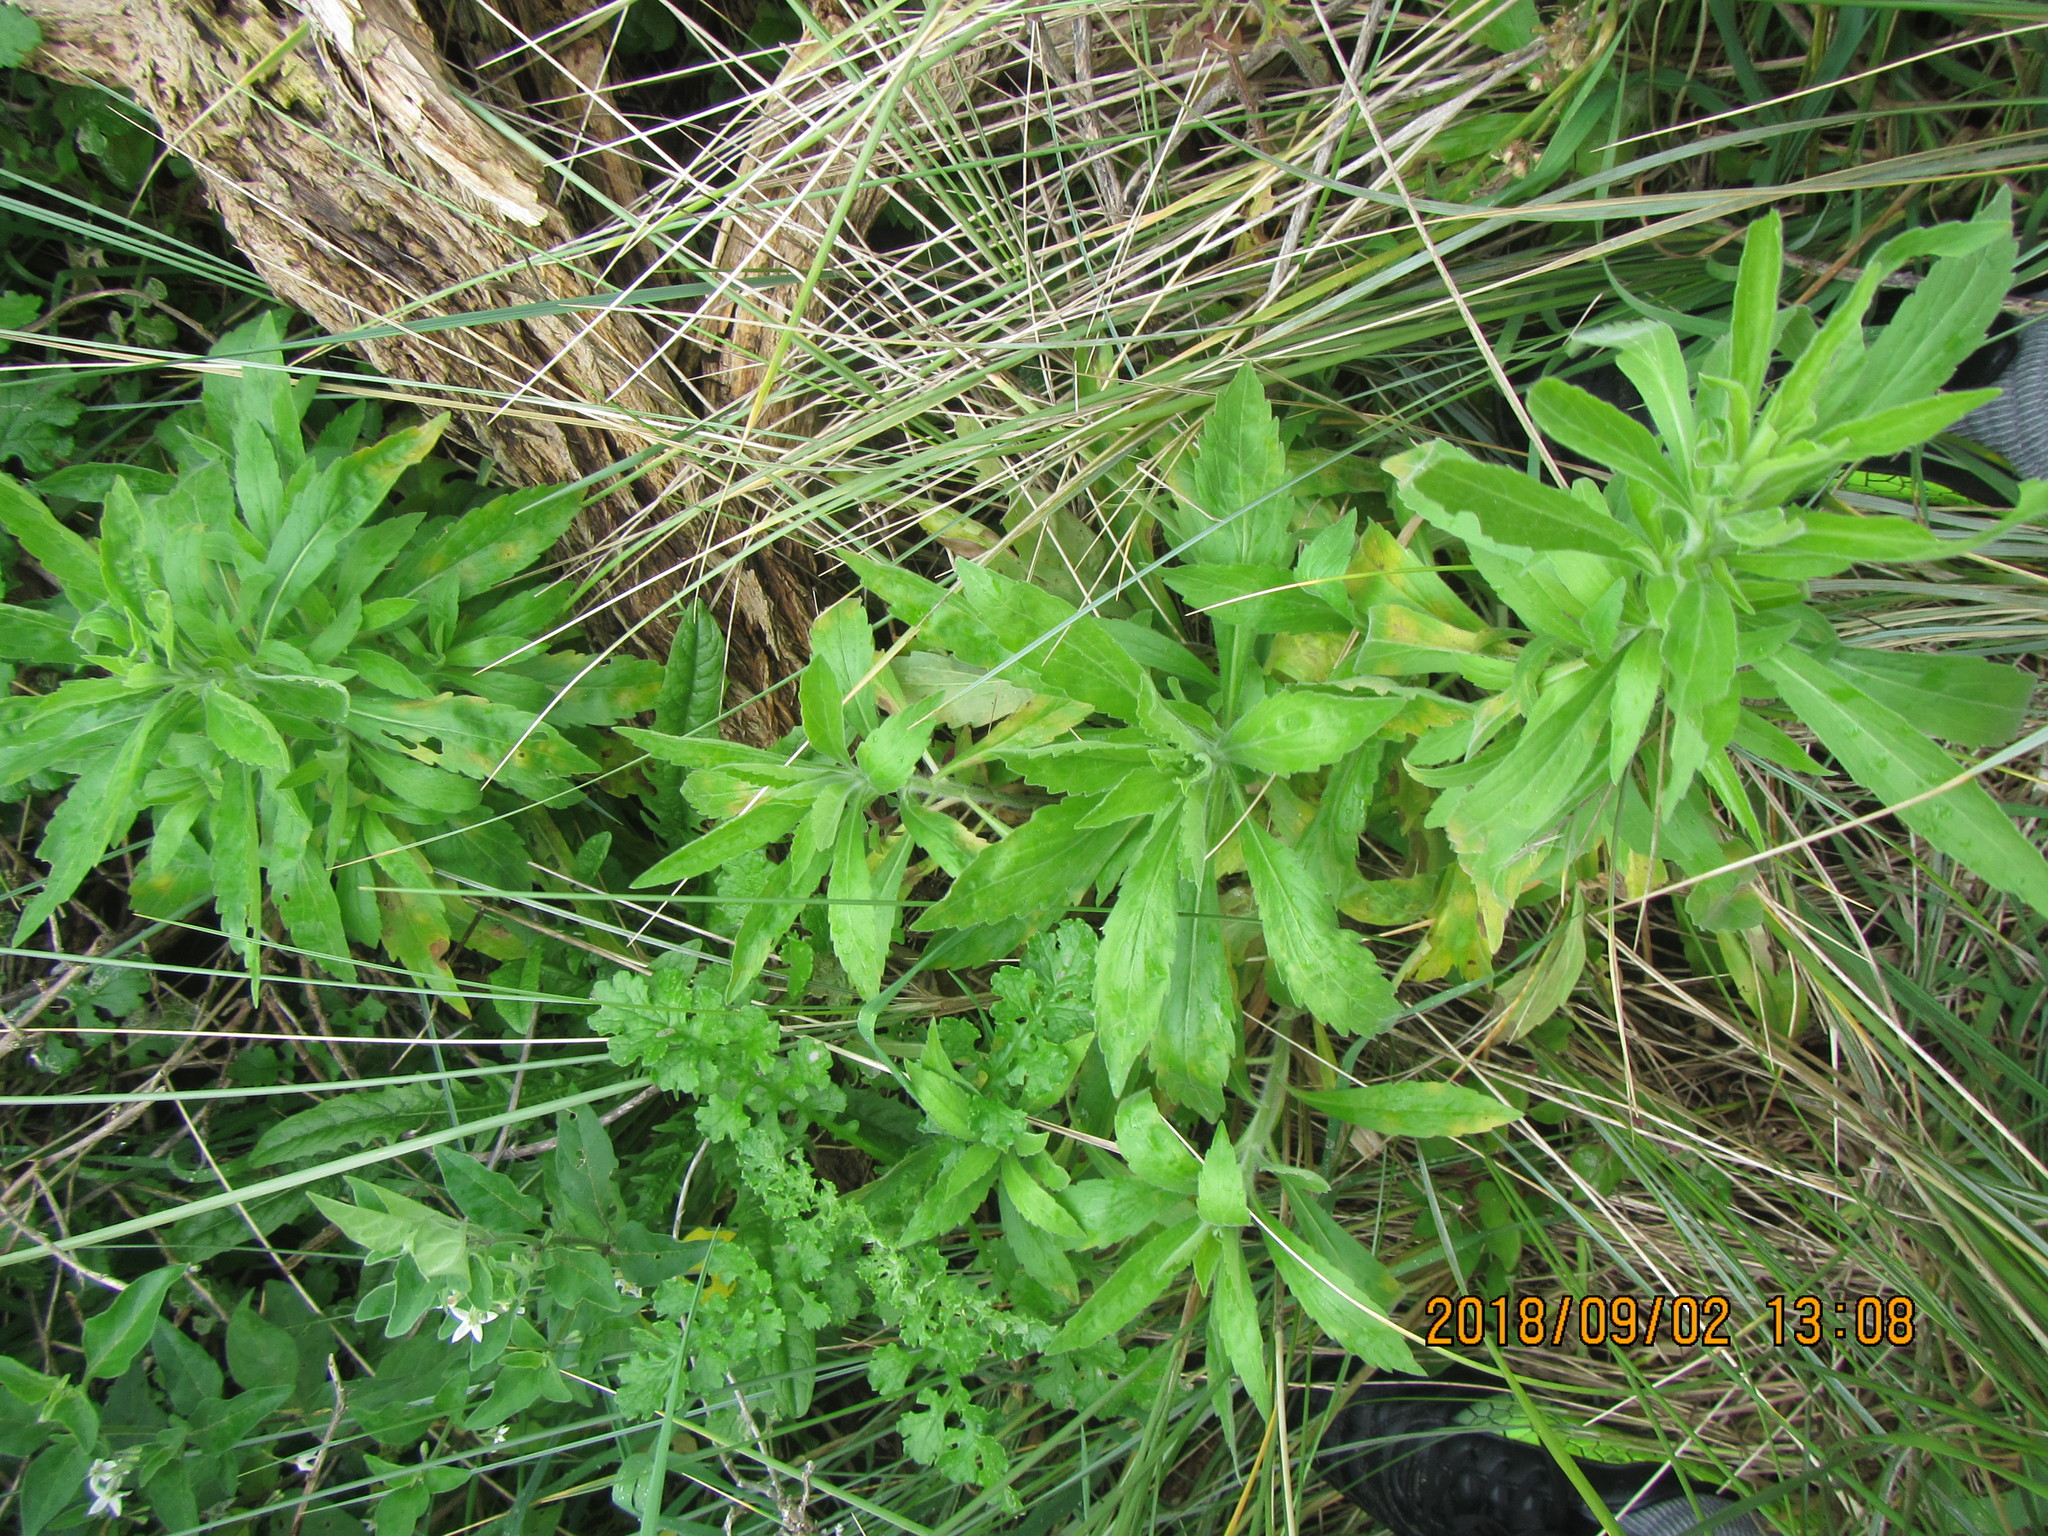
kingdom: Plantae
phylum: Tracheophyta
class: Magnoliopsida
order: Asterales
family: Asteraceae
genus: Erigeron
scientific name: Erigeron sumatrensis
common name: Daisy
